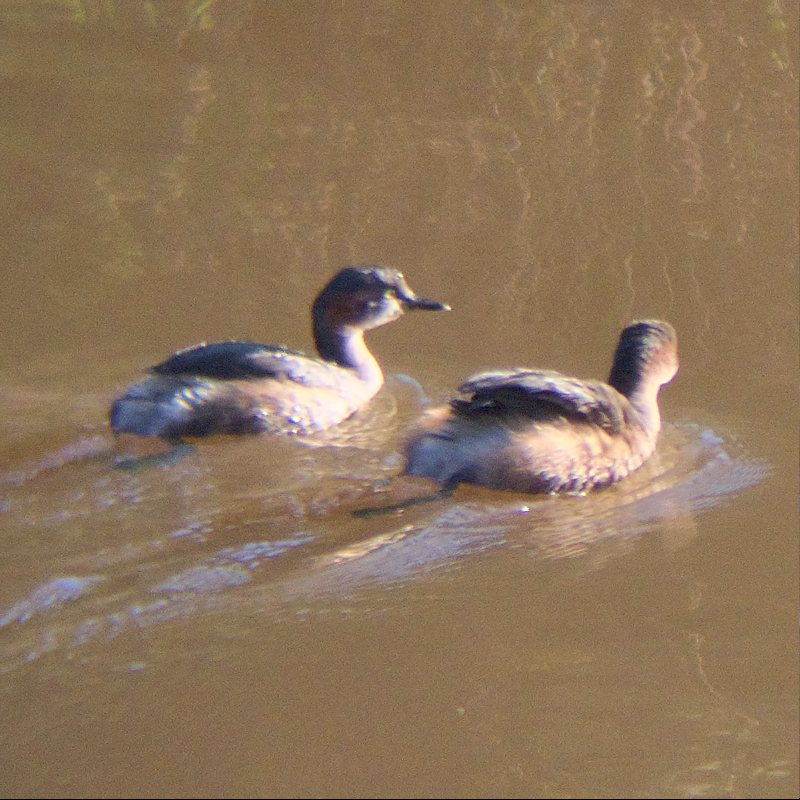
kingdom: Animalia
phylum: Chordata
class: Aves
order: Podicipediformes
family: Podicipedidae
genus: Tachybaptus
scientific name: Tachybaptus novaehollandiae
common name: Australasian grebe
